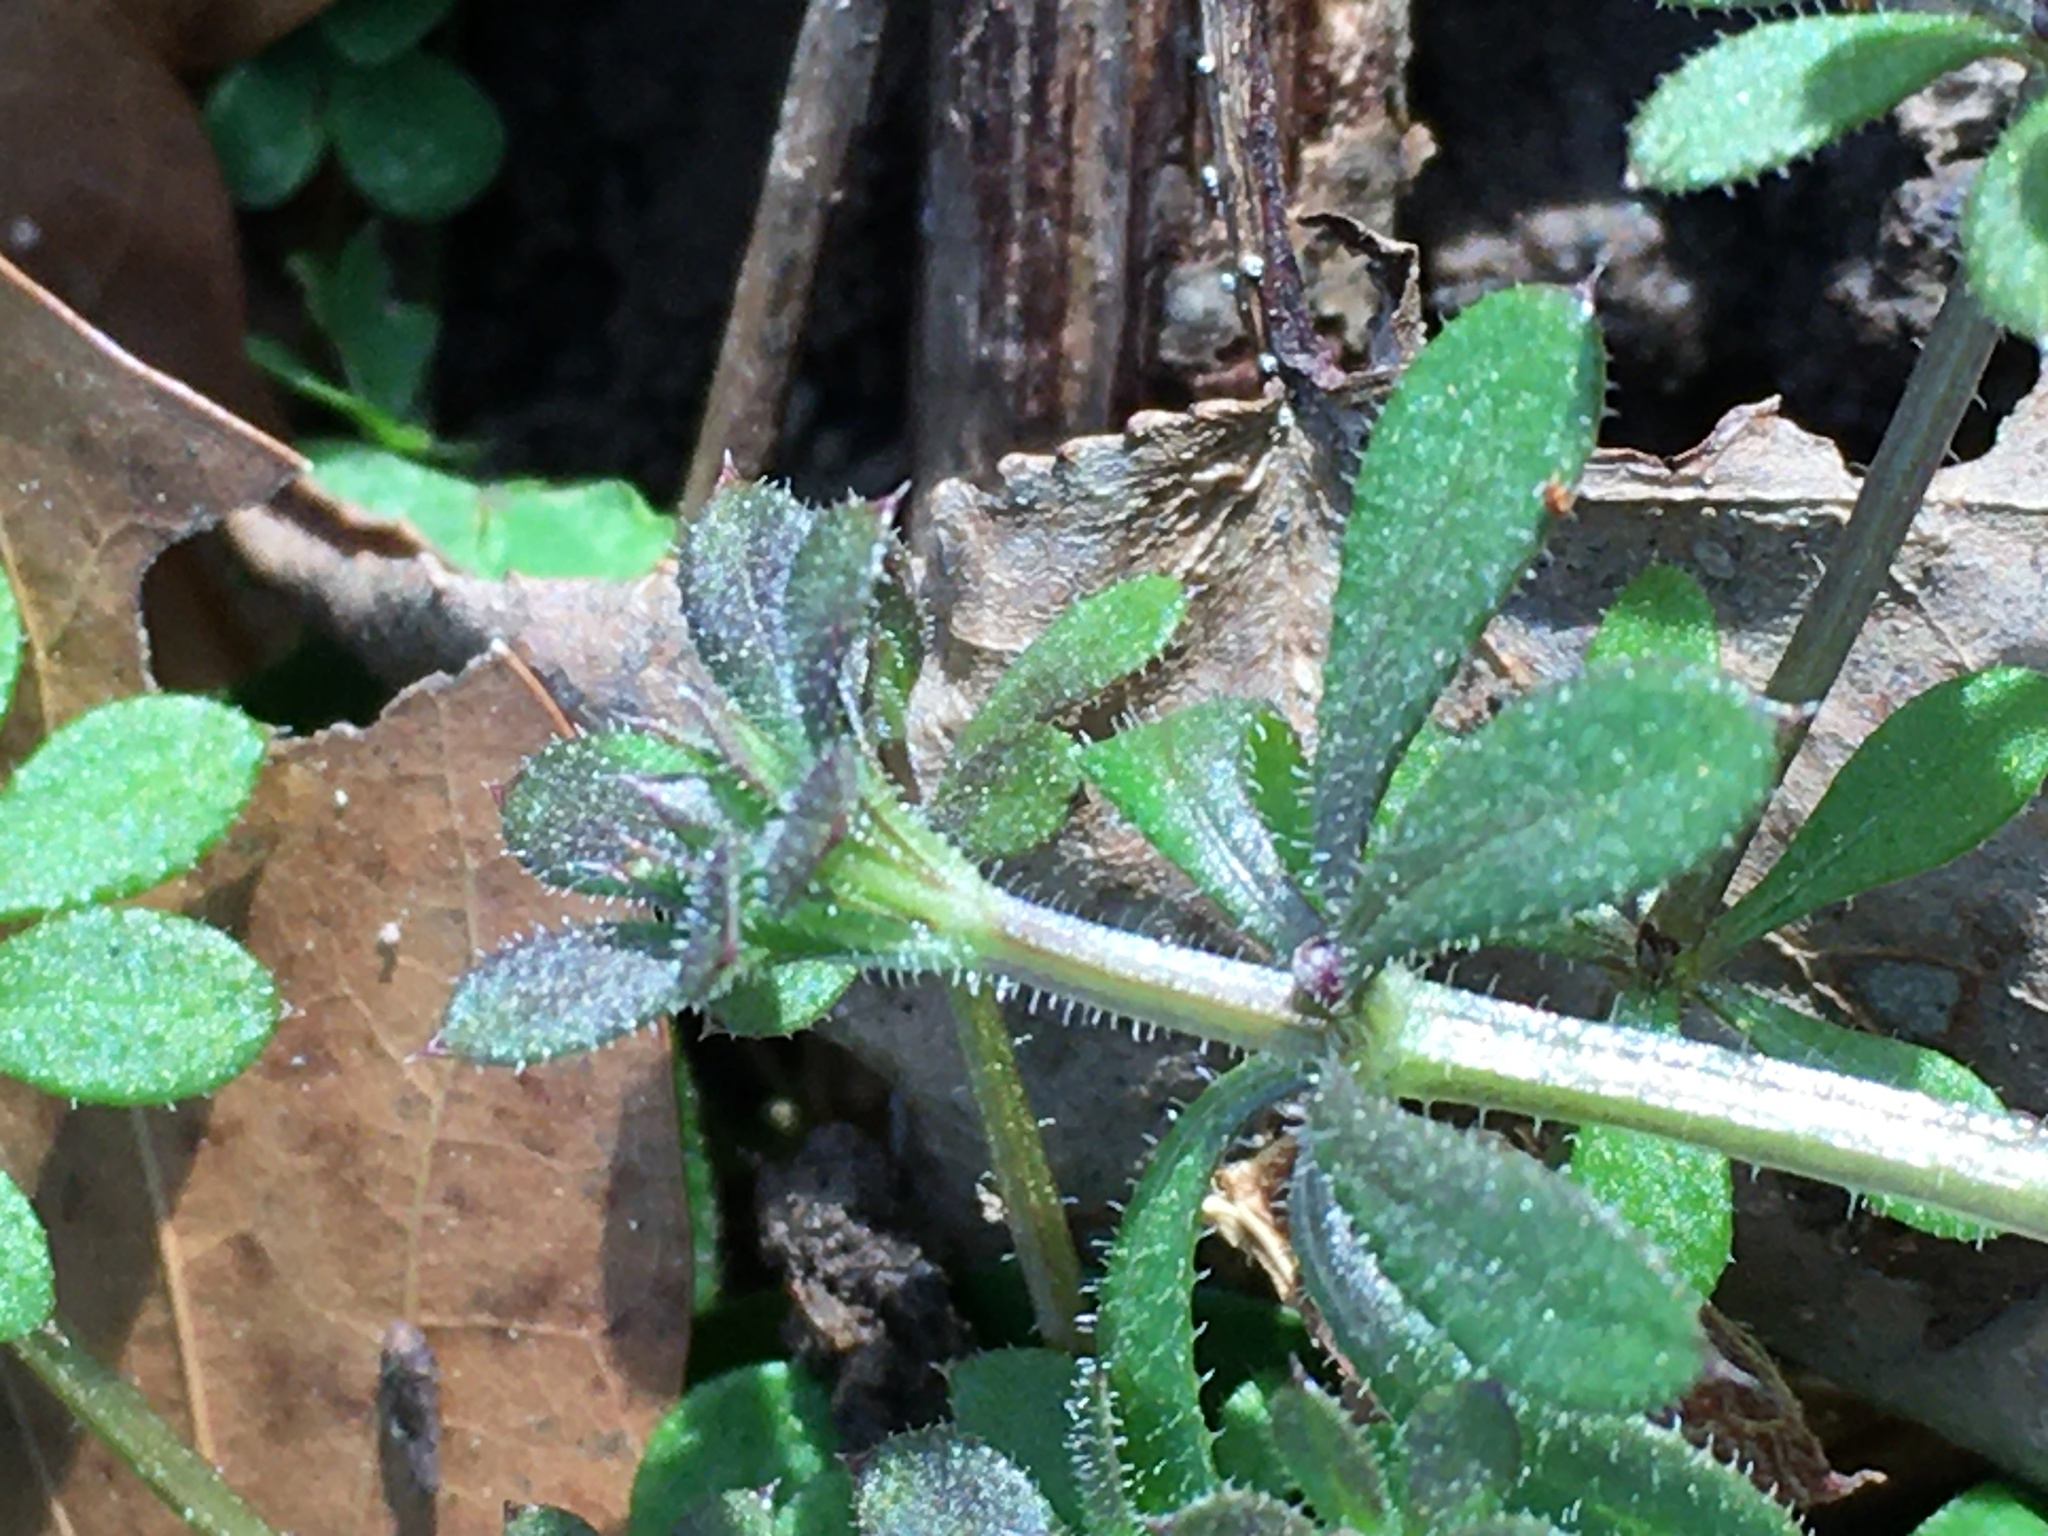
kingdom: Plantae
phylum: Tracheophyta
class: Magnoliopsida
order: Gentianales
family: Rubiaceae
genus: Galium
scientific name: Galium aparine
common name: Cleavers
